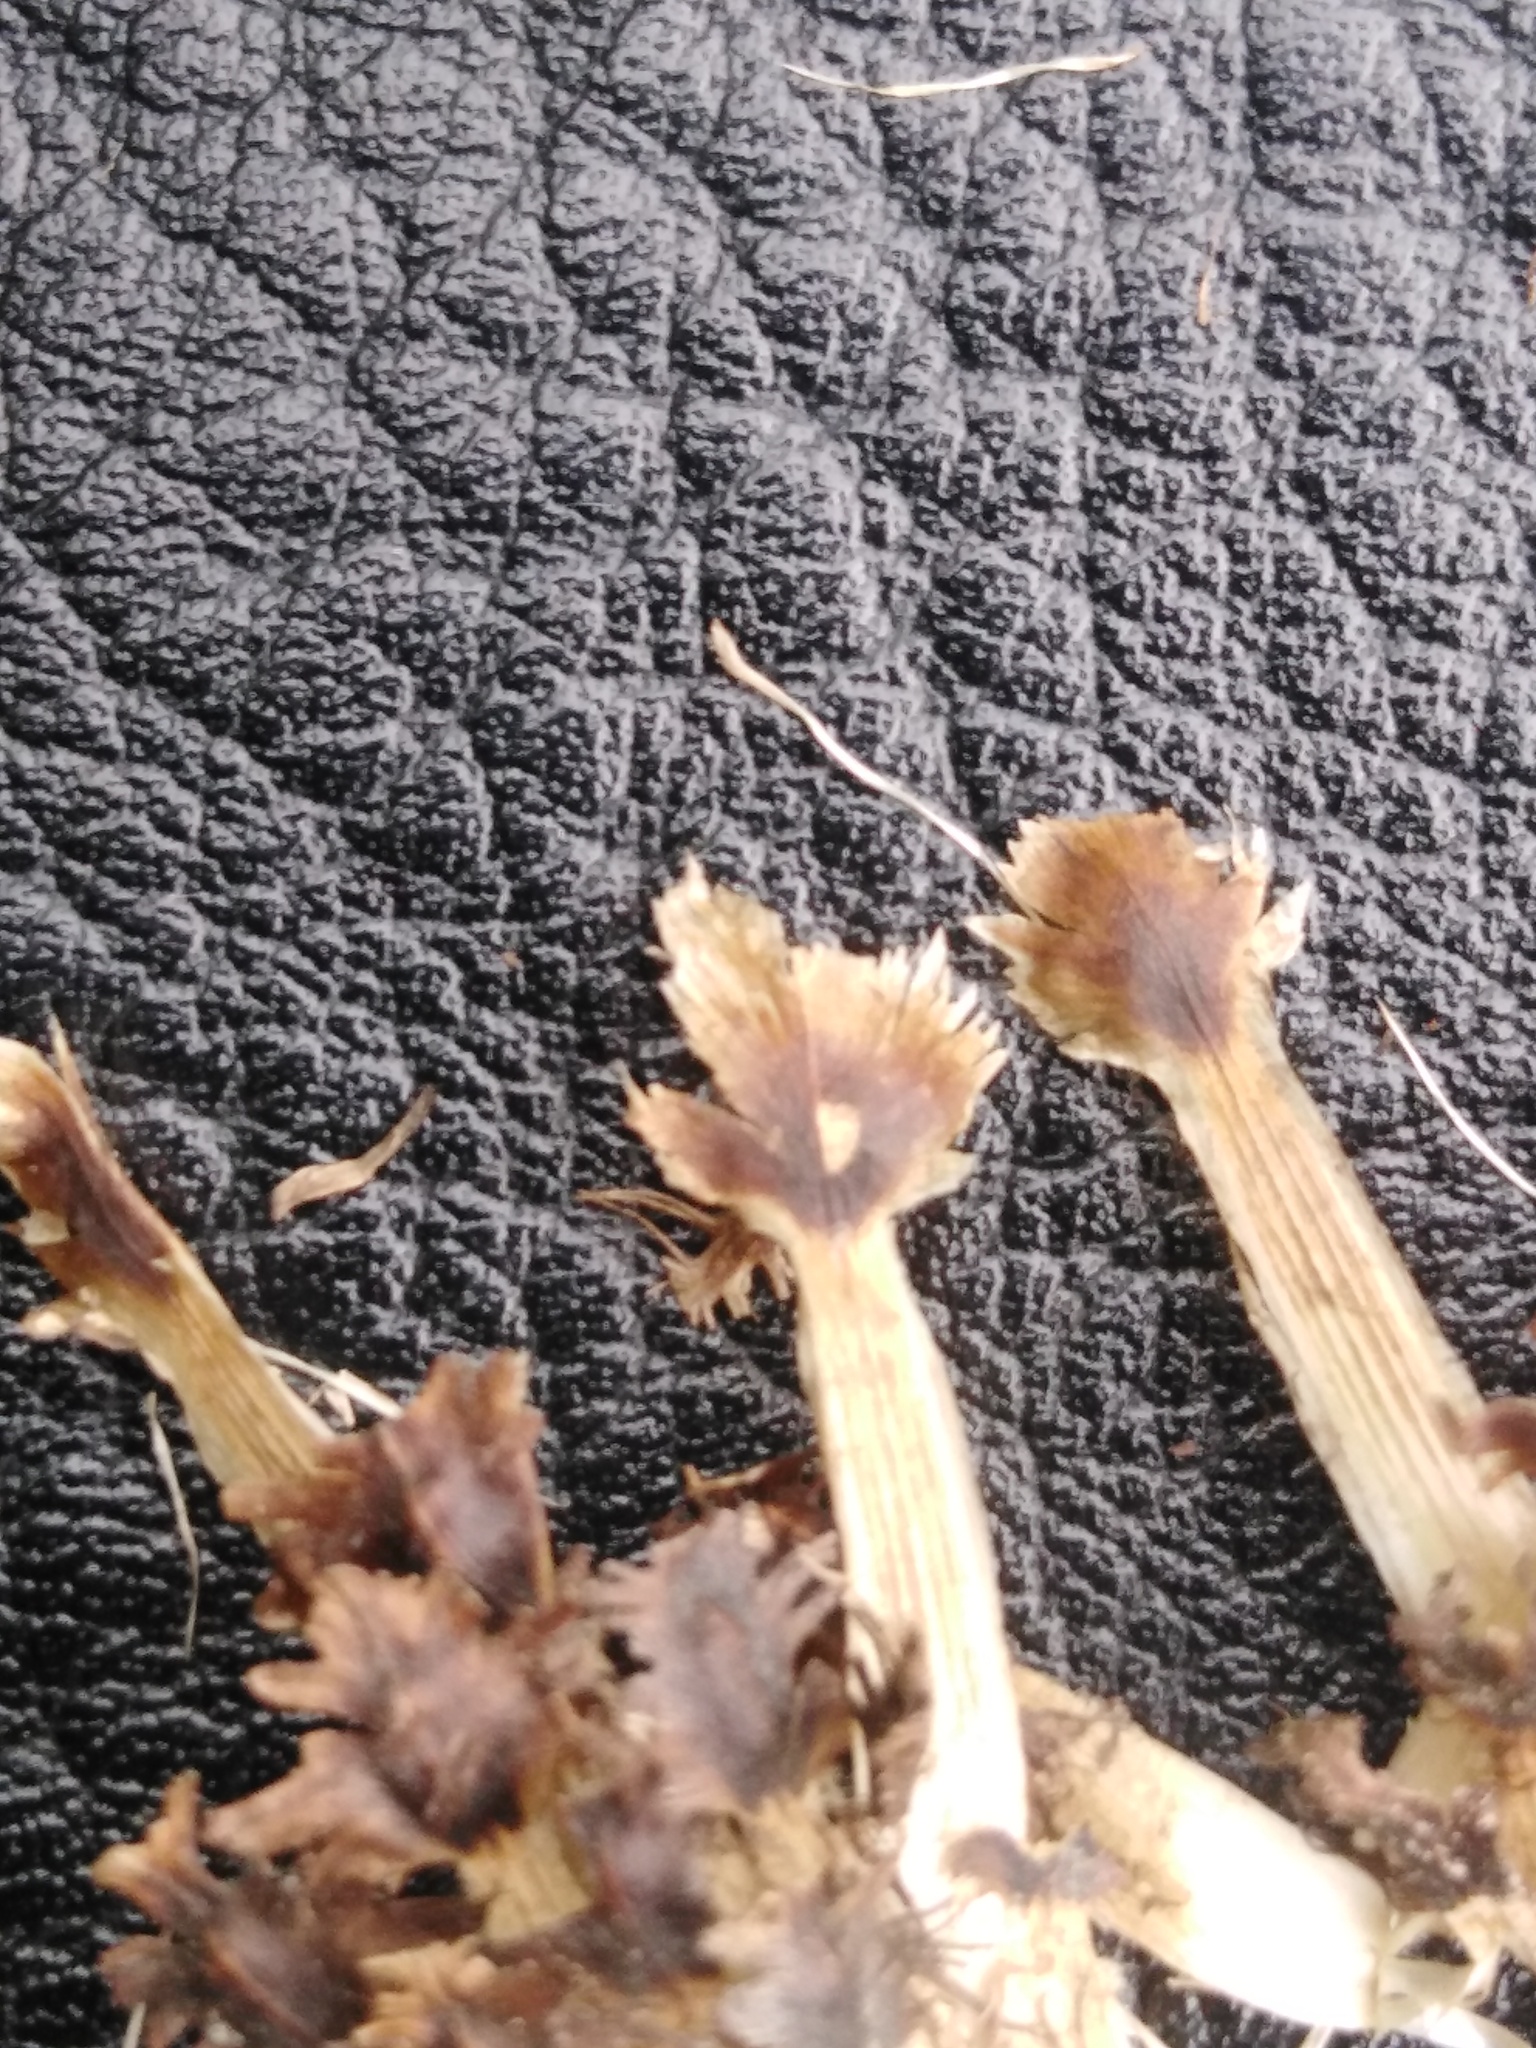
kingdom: Plantae
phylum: Tracheophyta
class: Magnoliopsida
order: Asterales
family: Asteraceae
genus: Centaurea
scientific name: Centaurea phrygia
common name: Wig knapweed
